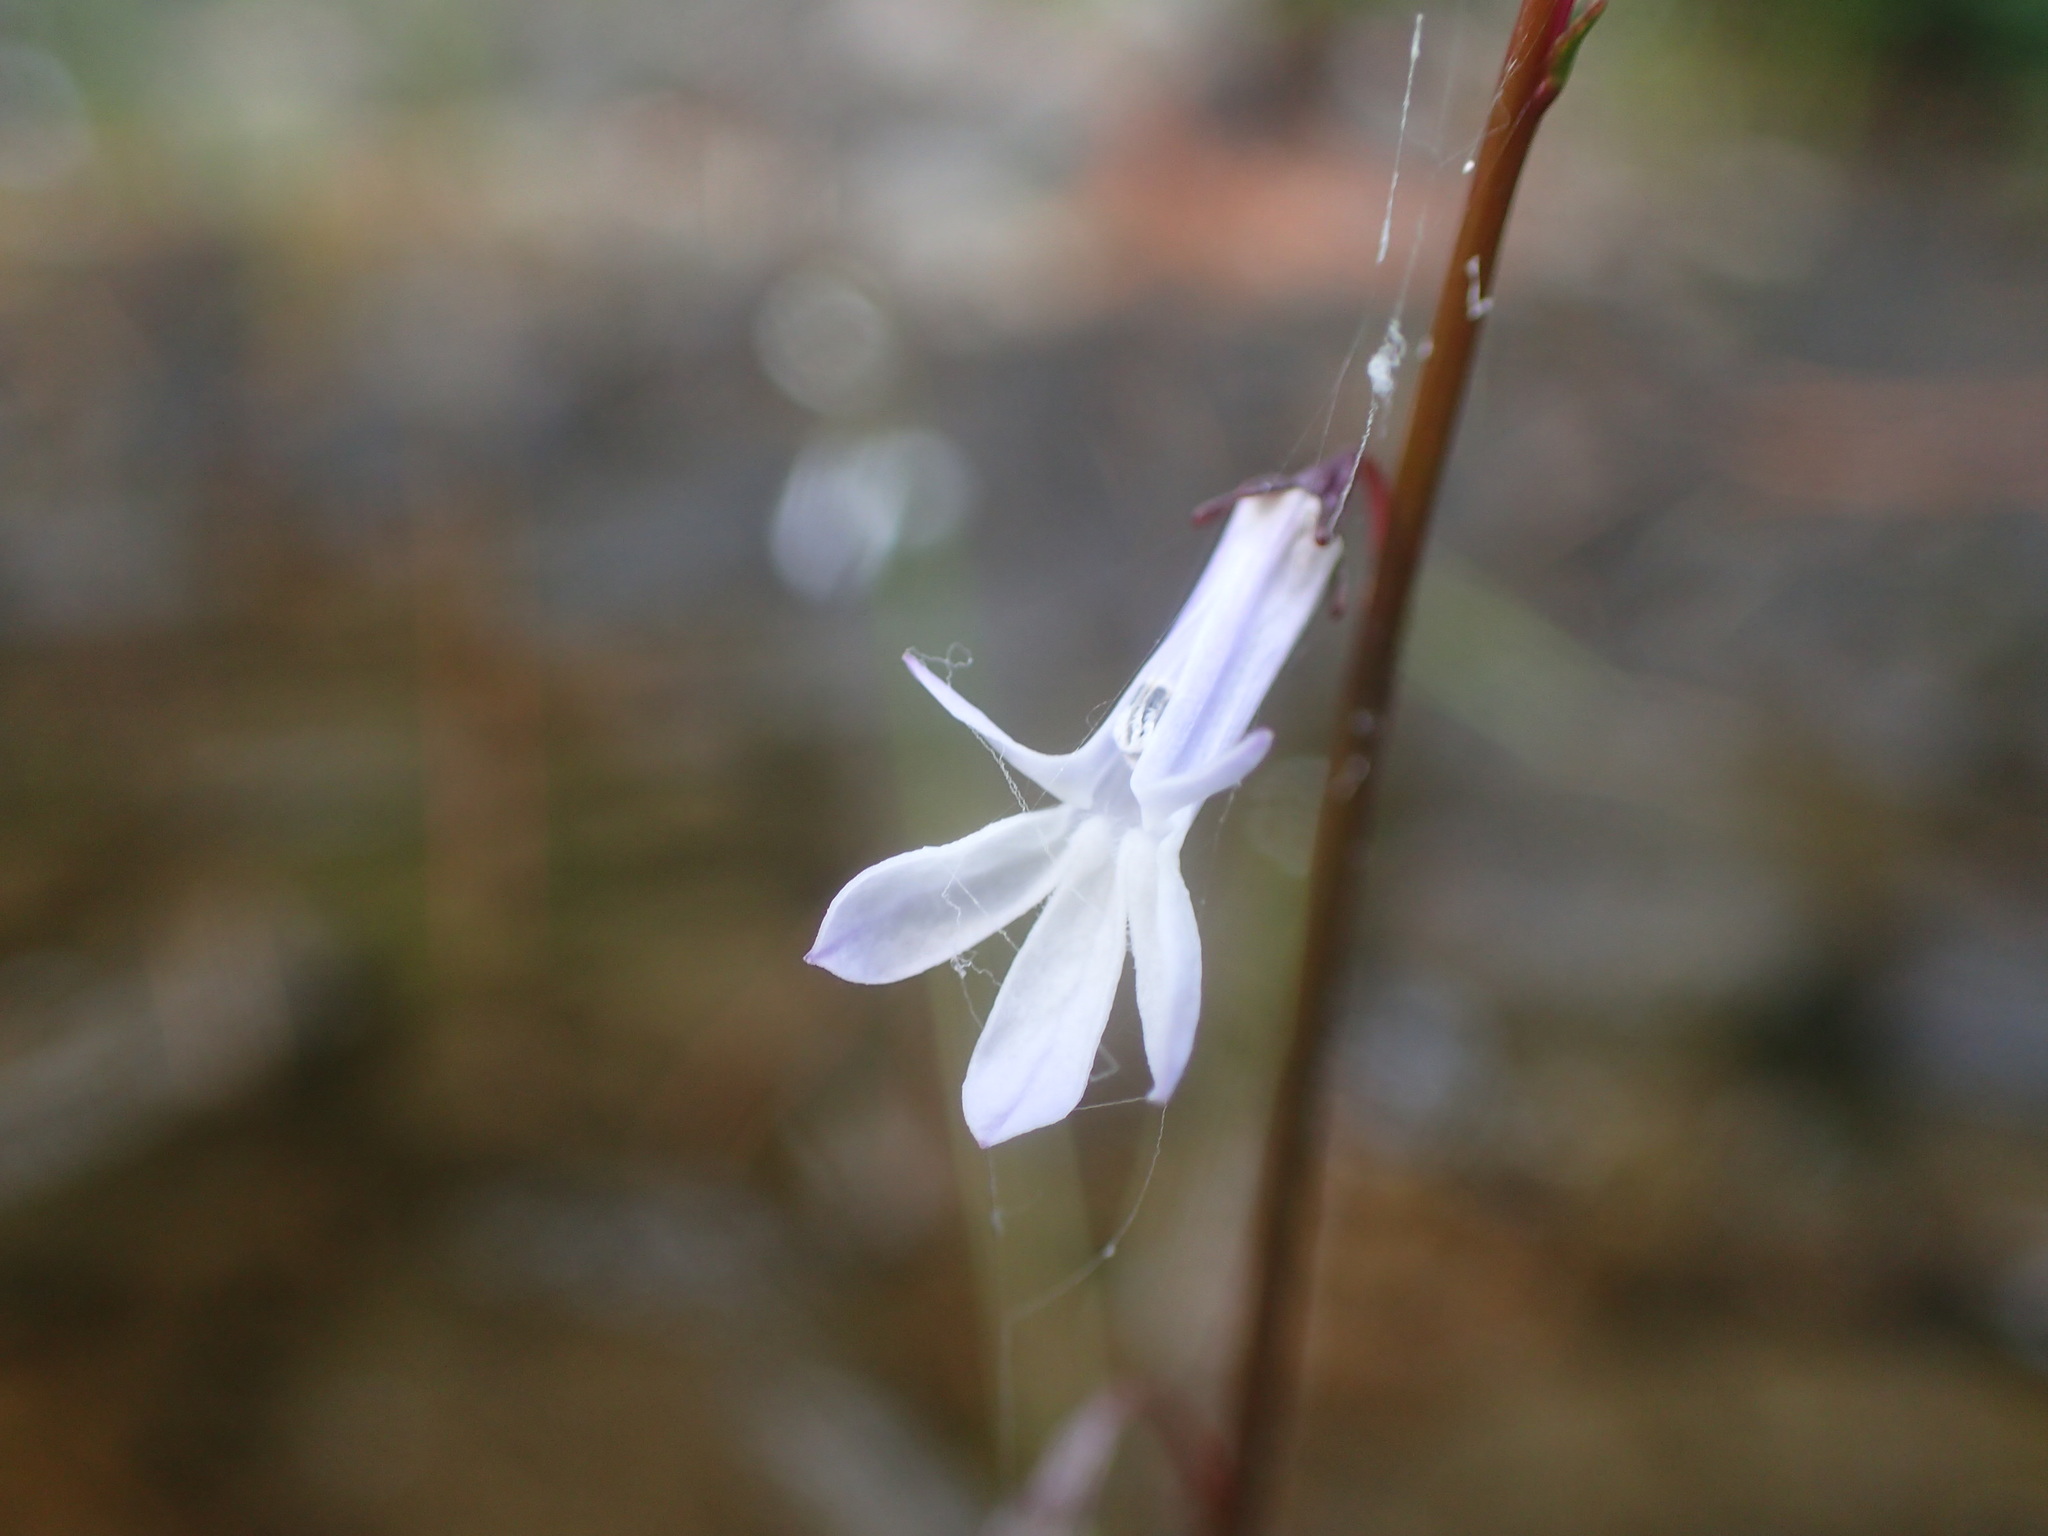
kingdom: Plantae
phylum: Tracheophyta
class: Magnoliopsida
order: Asterales
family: Campanulaceae
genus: Lobelia
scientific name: Lobelia dortmanna
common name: Water lobelia
